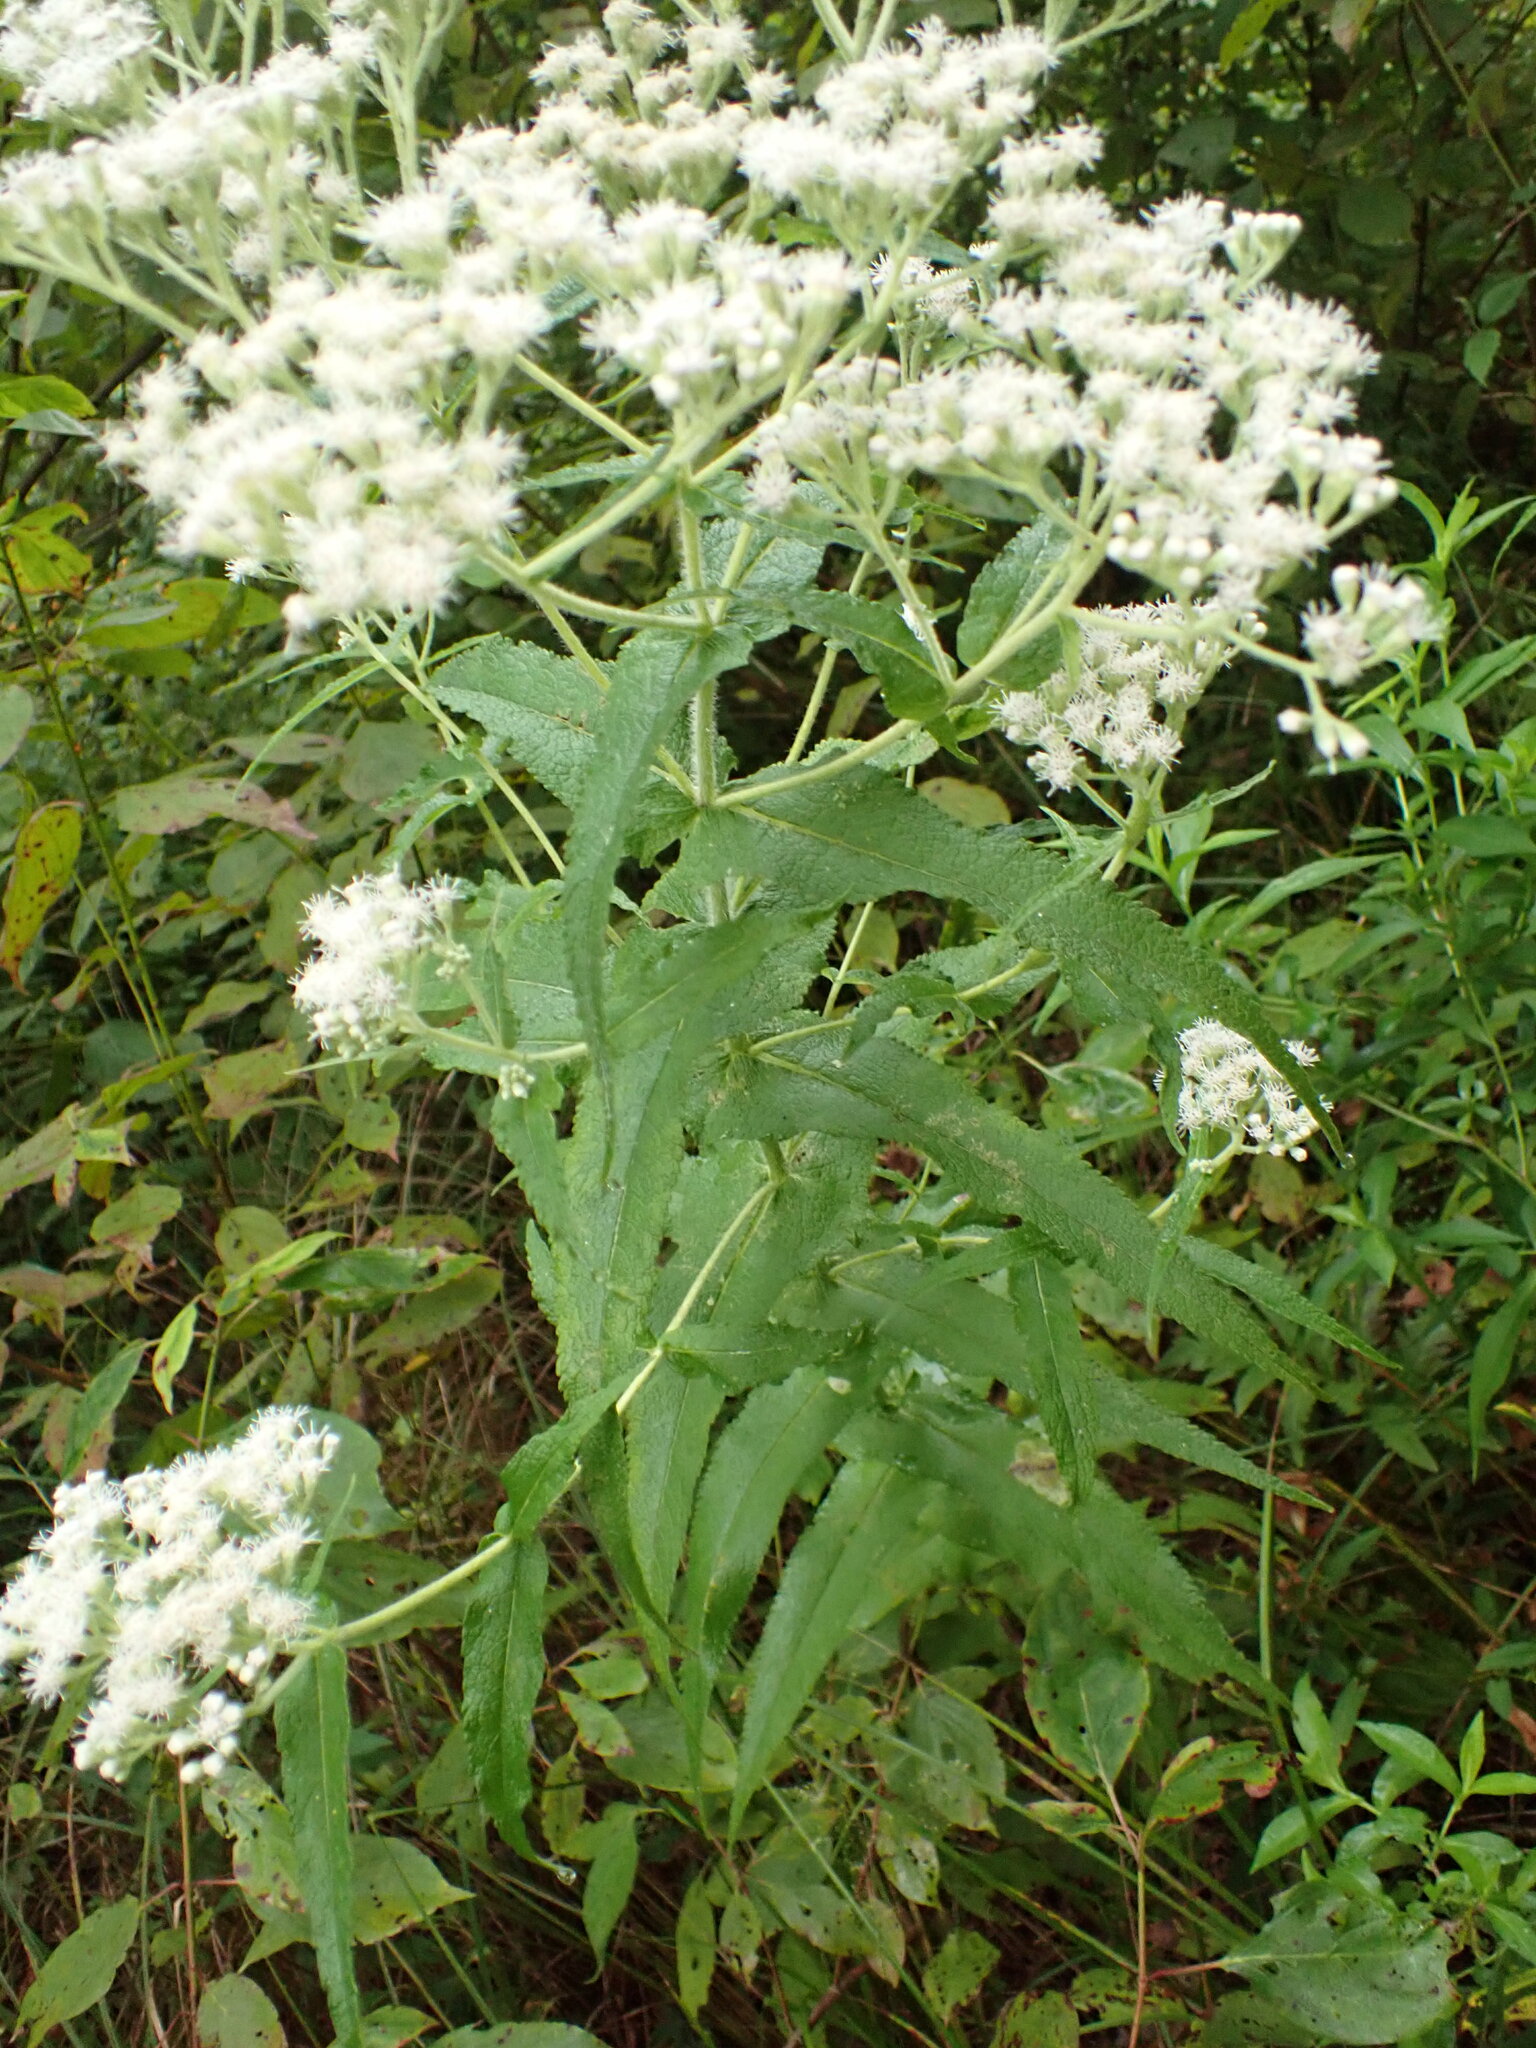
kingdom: Plantae
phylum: Tracheophyta
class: Magnoliopsida
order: Asterales
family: Asteraceae
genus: Eupatorium
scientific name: Eupatorium perfoliatum
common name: Boneset
